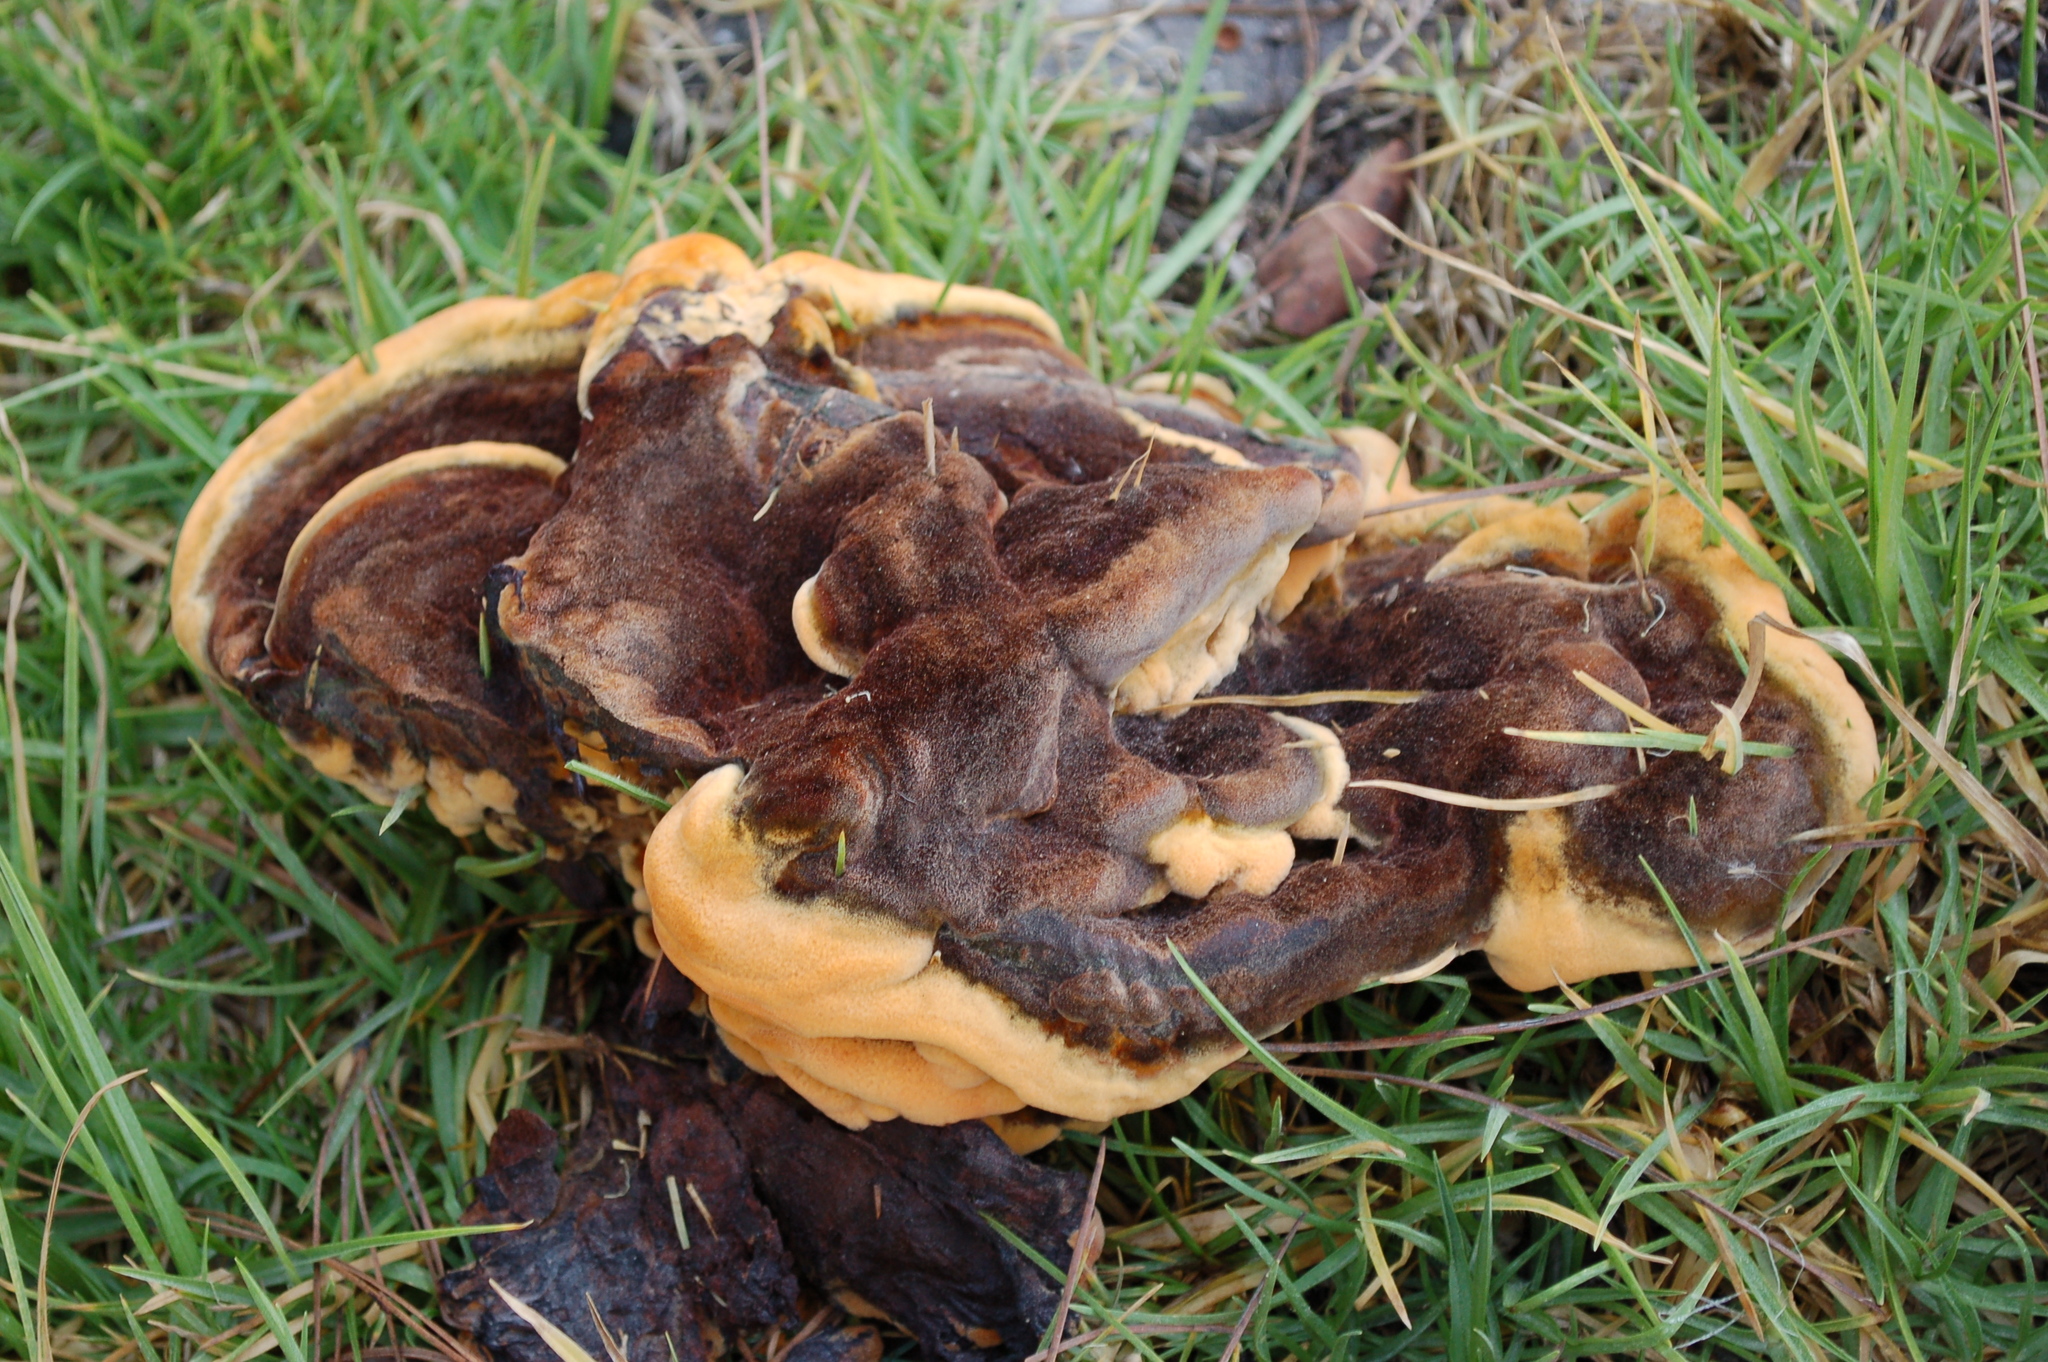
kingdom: Fungi
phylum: Basidiomycota
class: Agaricomycetes
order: Polyporales
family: Laetiporaceae
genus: Phaeolus
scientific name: Phaeolus schweinitzii
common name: Dyer's mazegill
